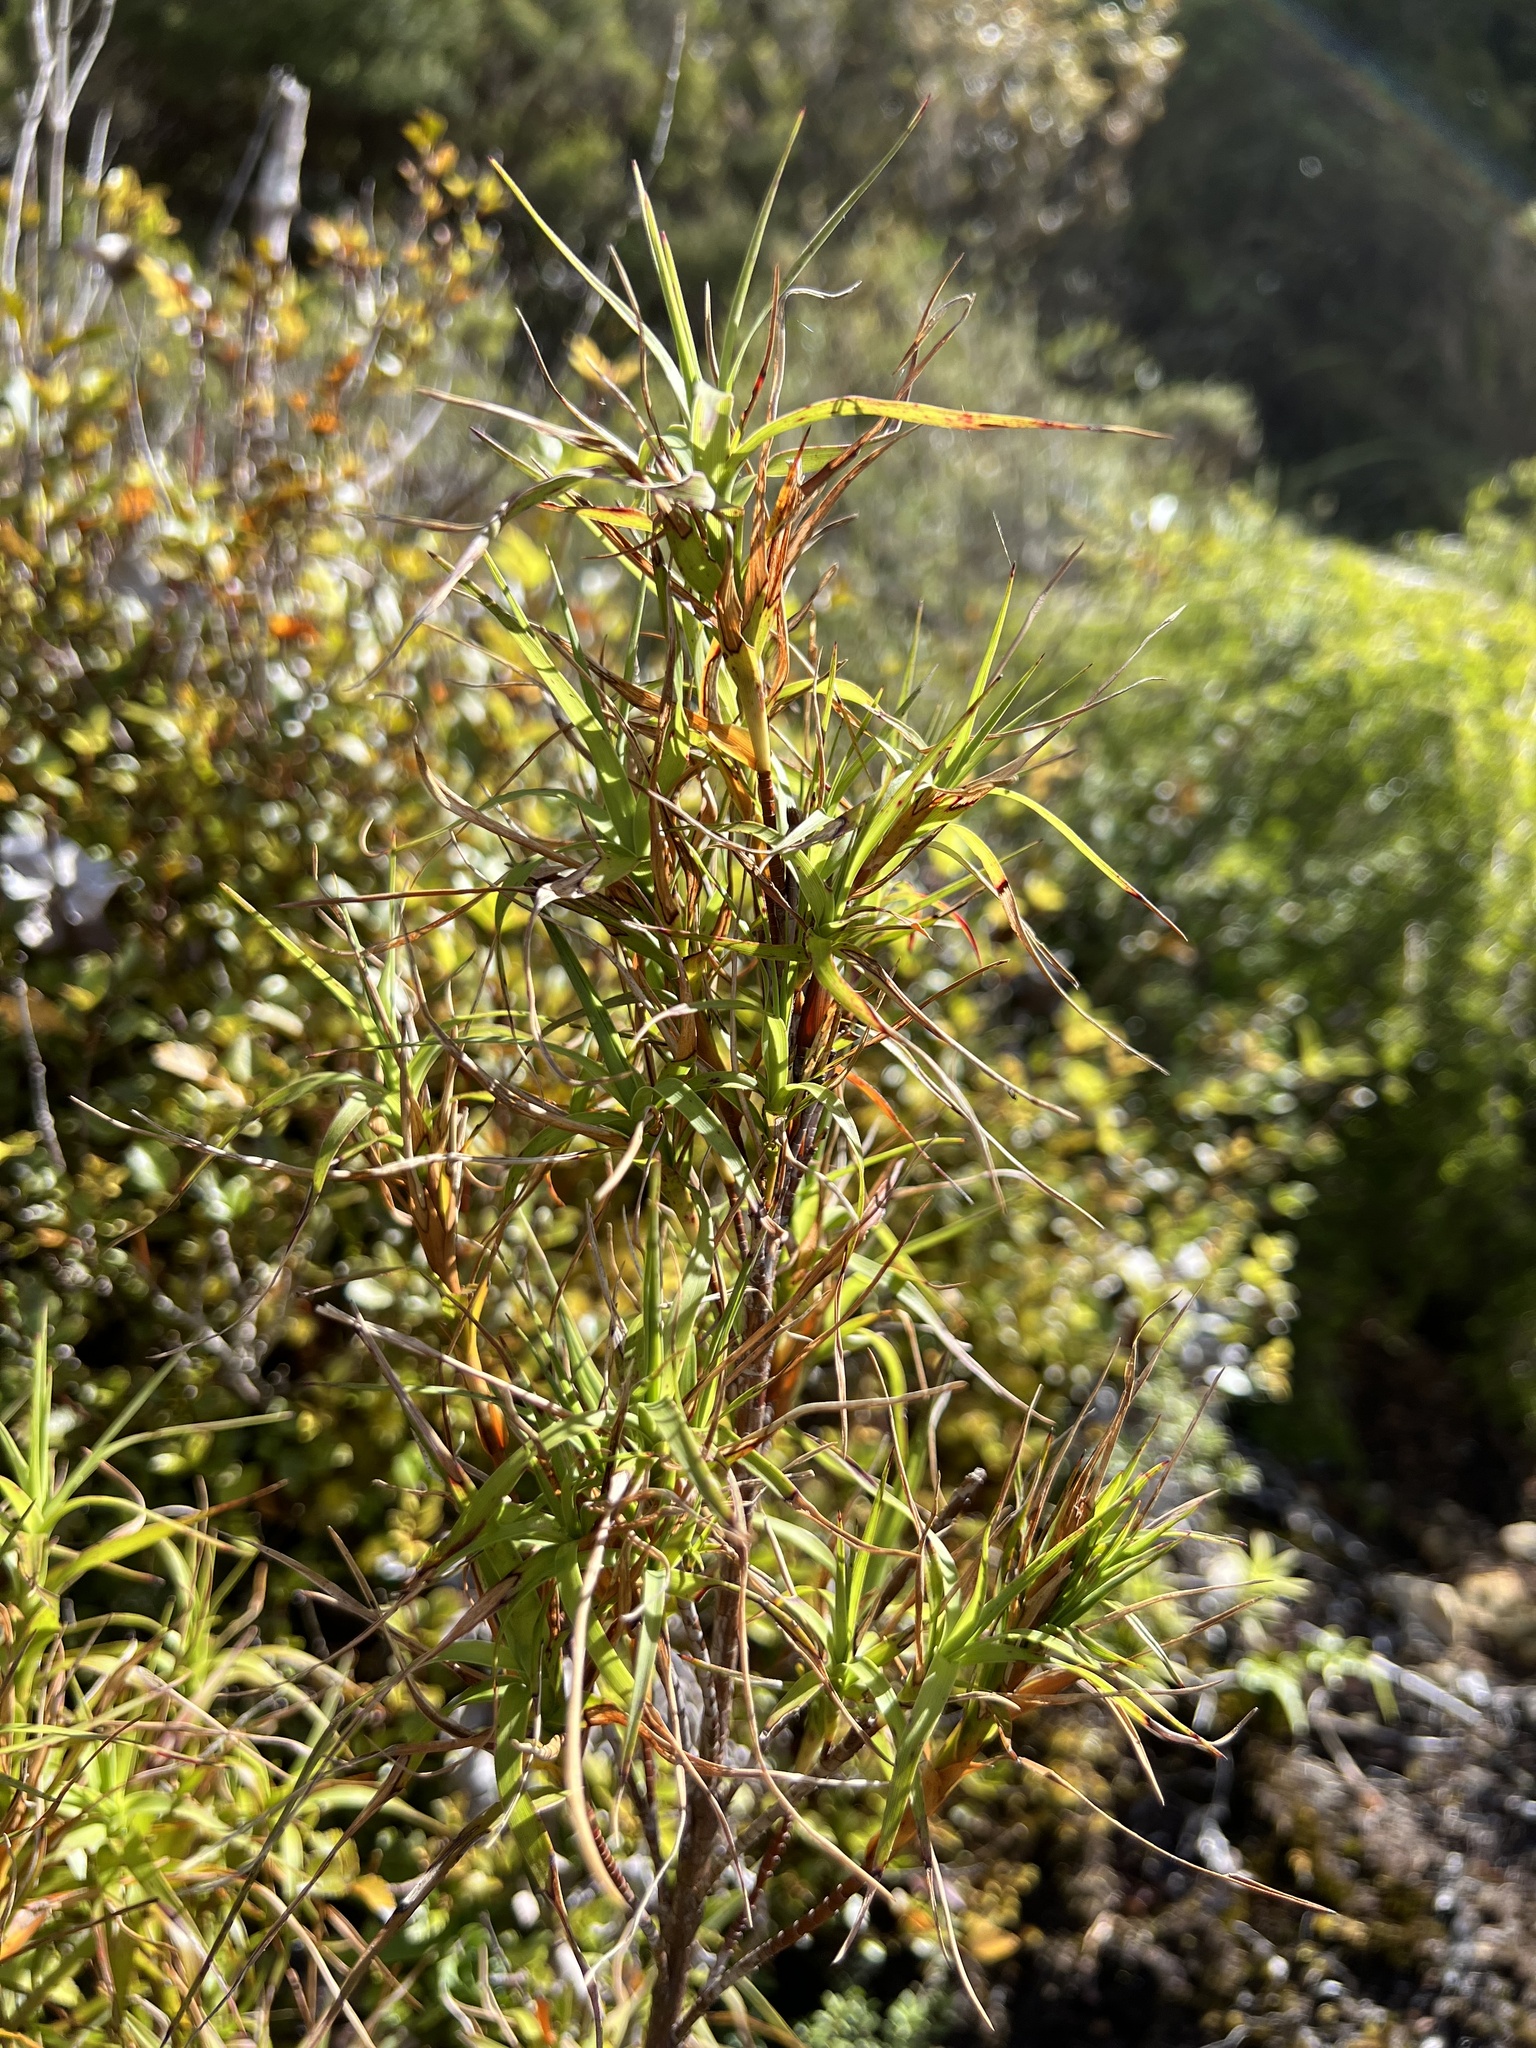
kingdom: Plantae
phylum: Tracheophyta
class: Magnoliopsida
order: Ericales
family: Ericaceae
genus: Dracophyllum
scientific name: Dracophyllum sinclairii
